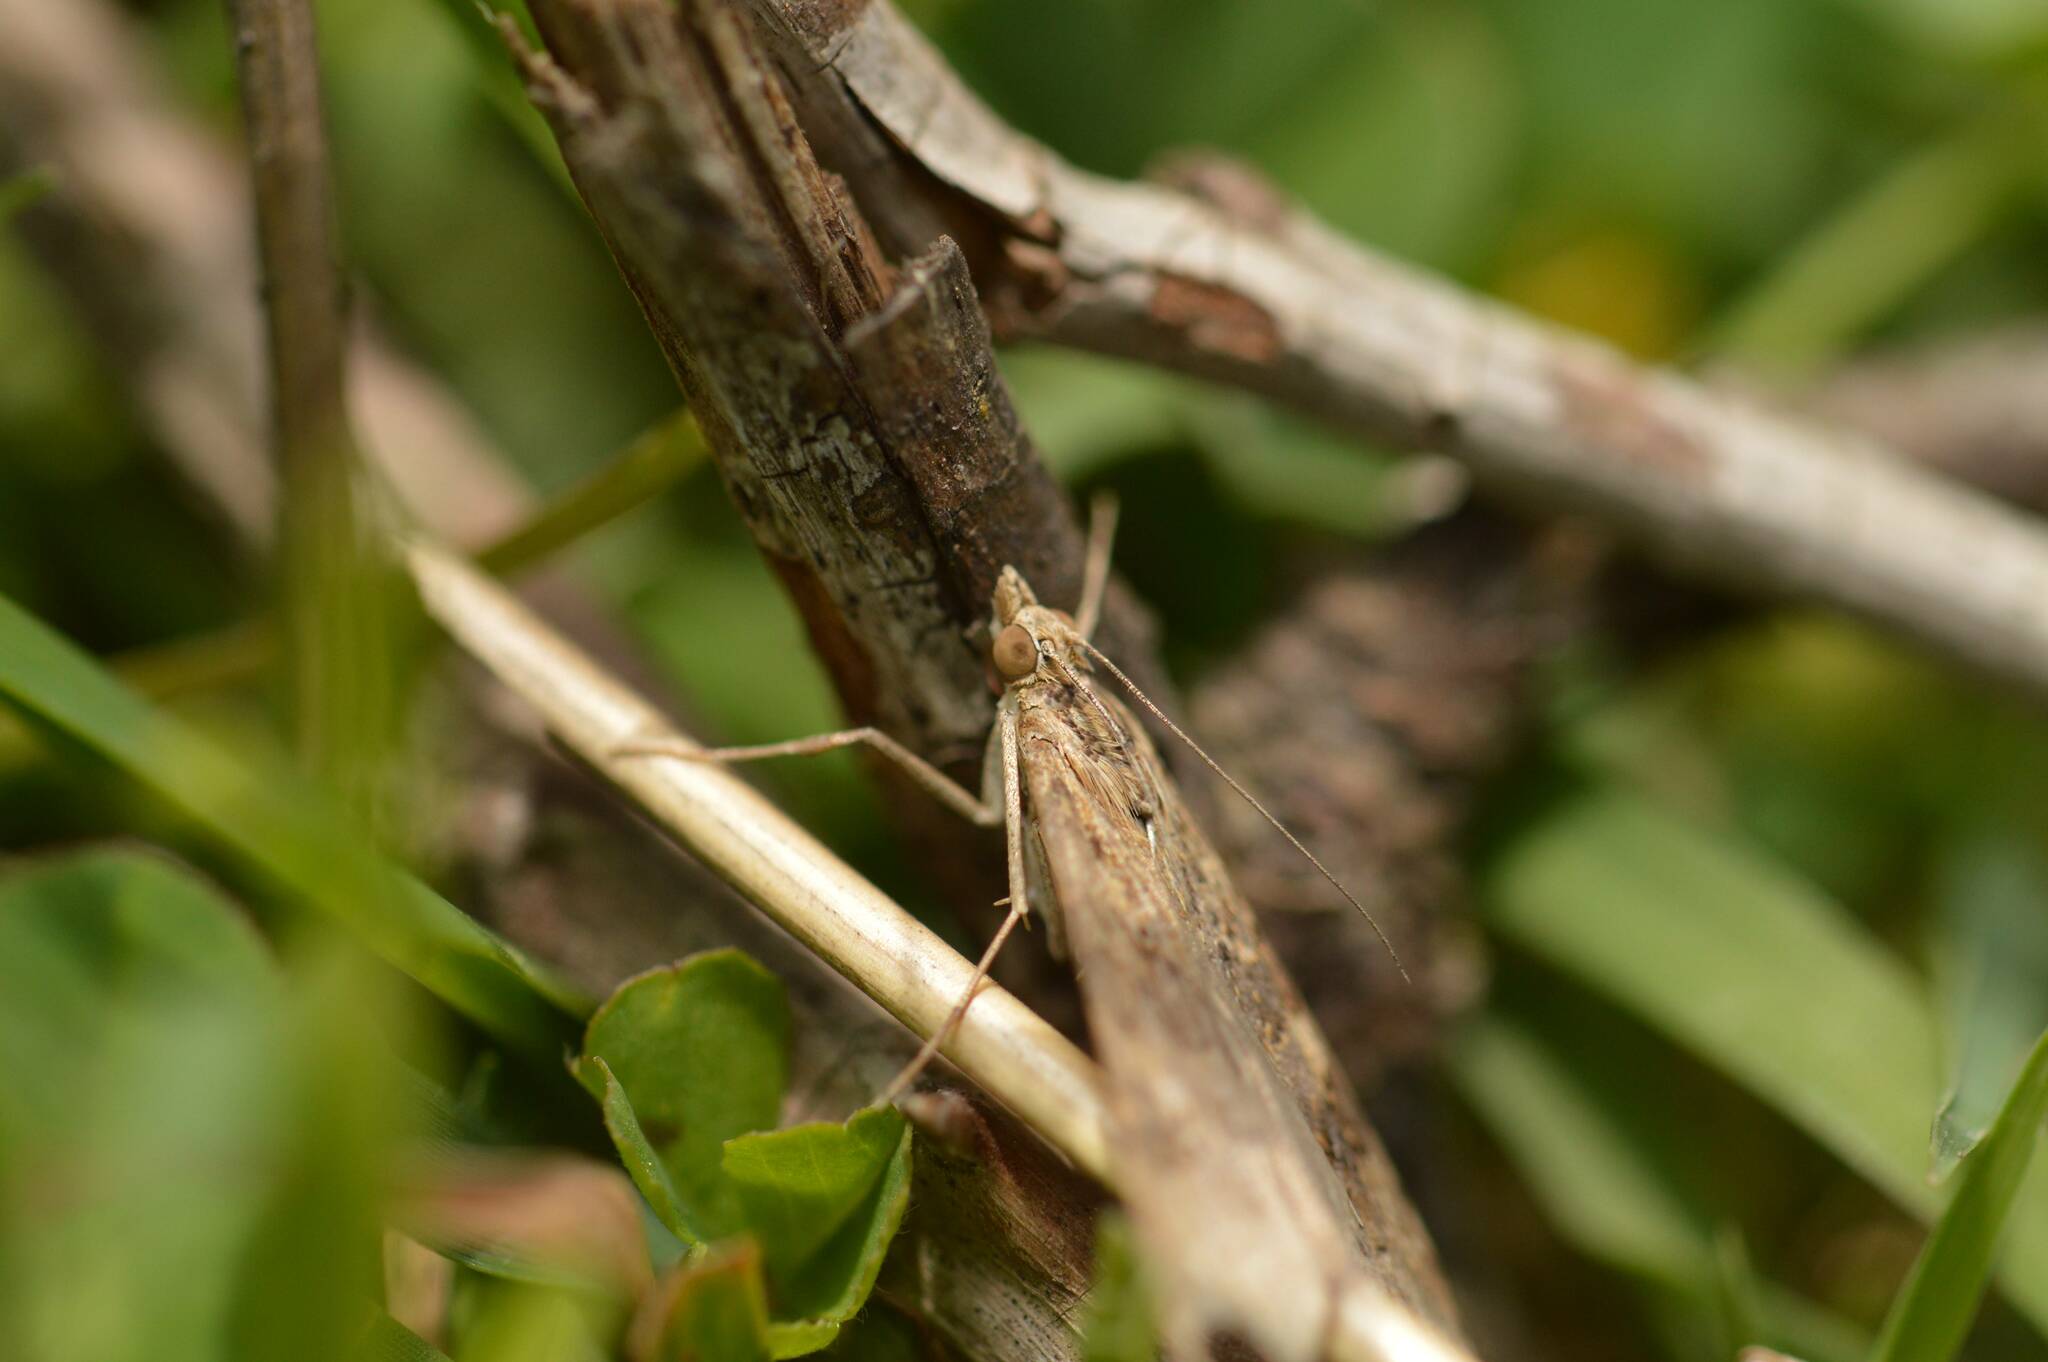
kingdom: Animalia
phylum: Arthropoda
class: Insecta
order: Lepidoptera
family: Crambidae
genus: Nomophila
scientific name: Nomophila noctuella
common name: Rush veneer
